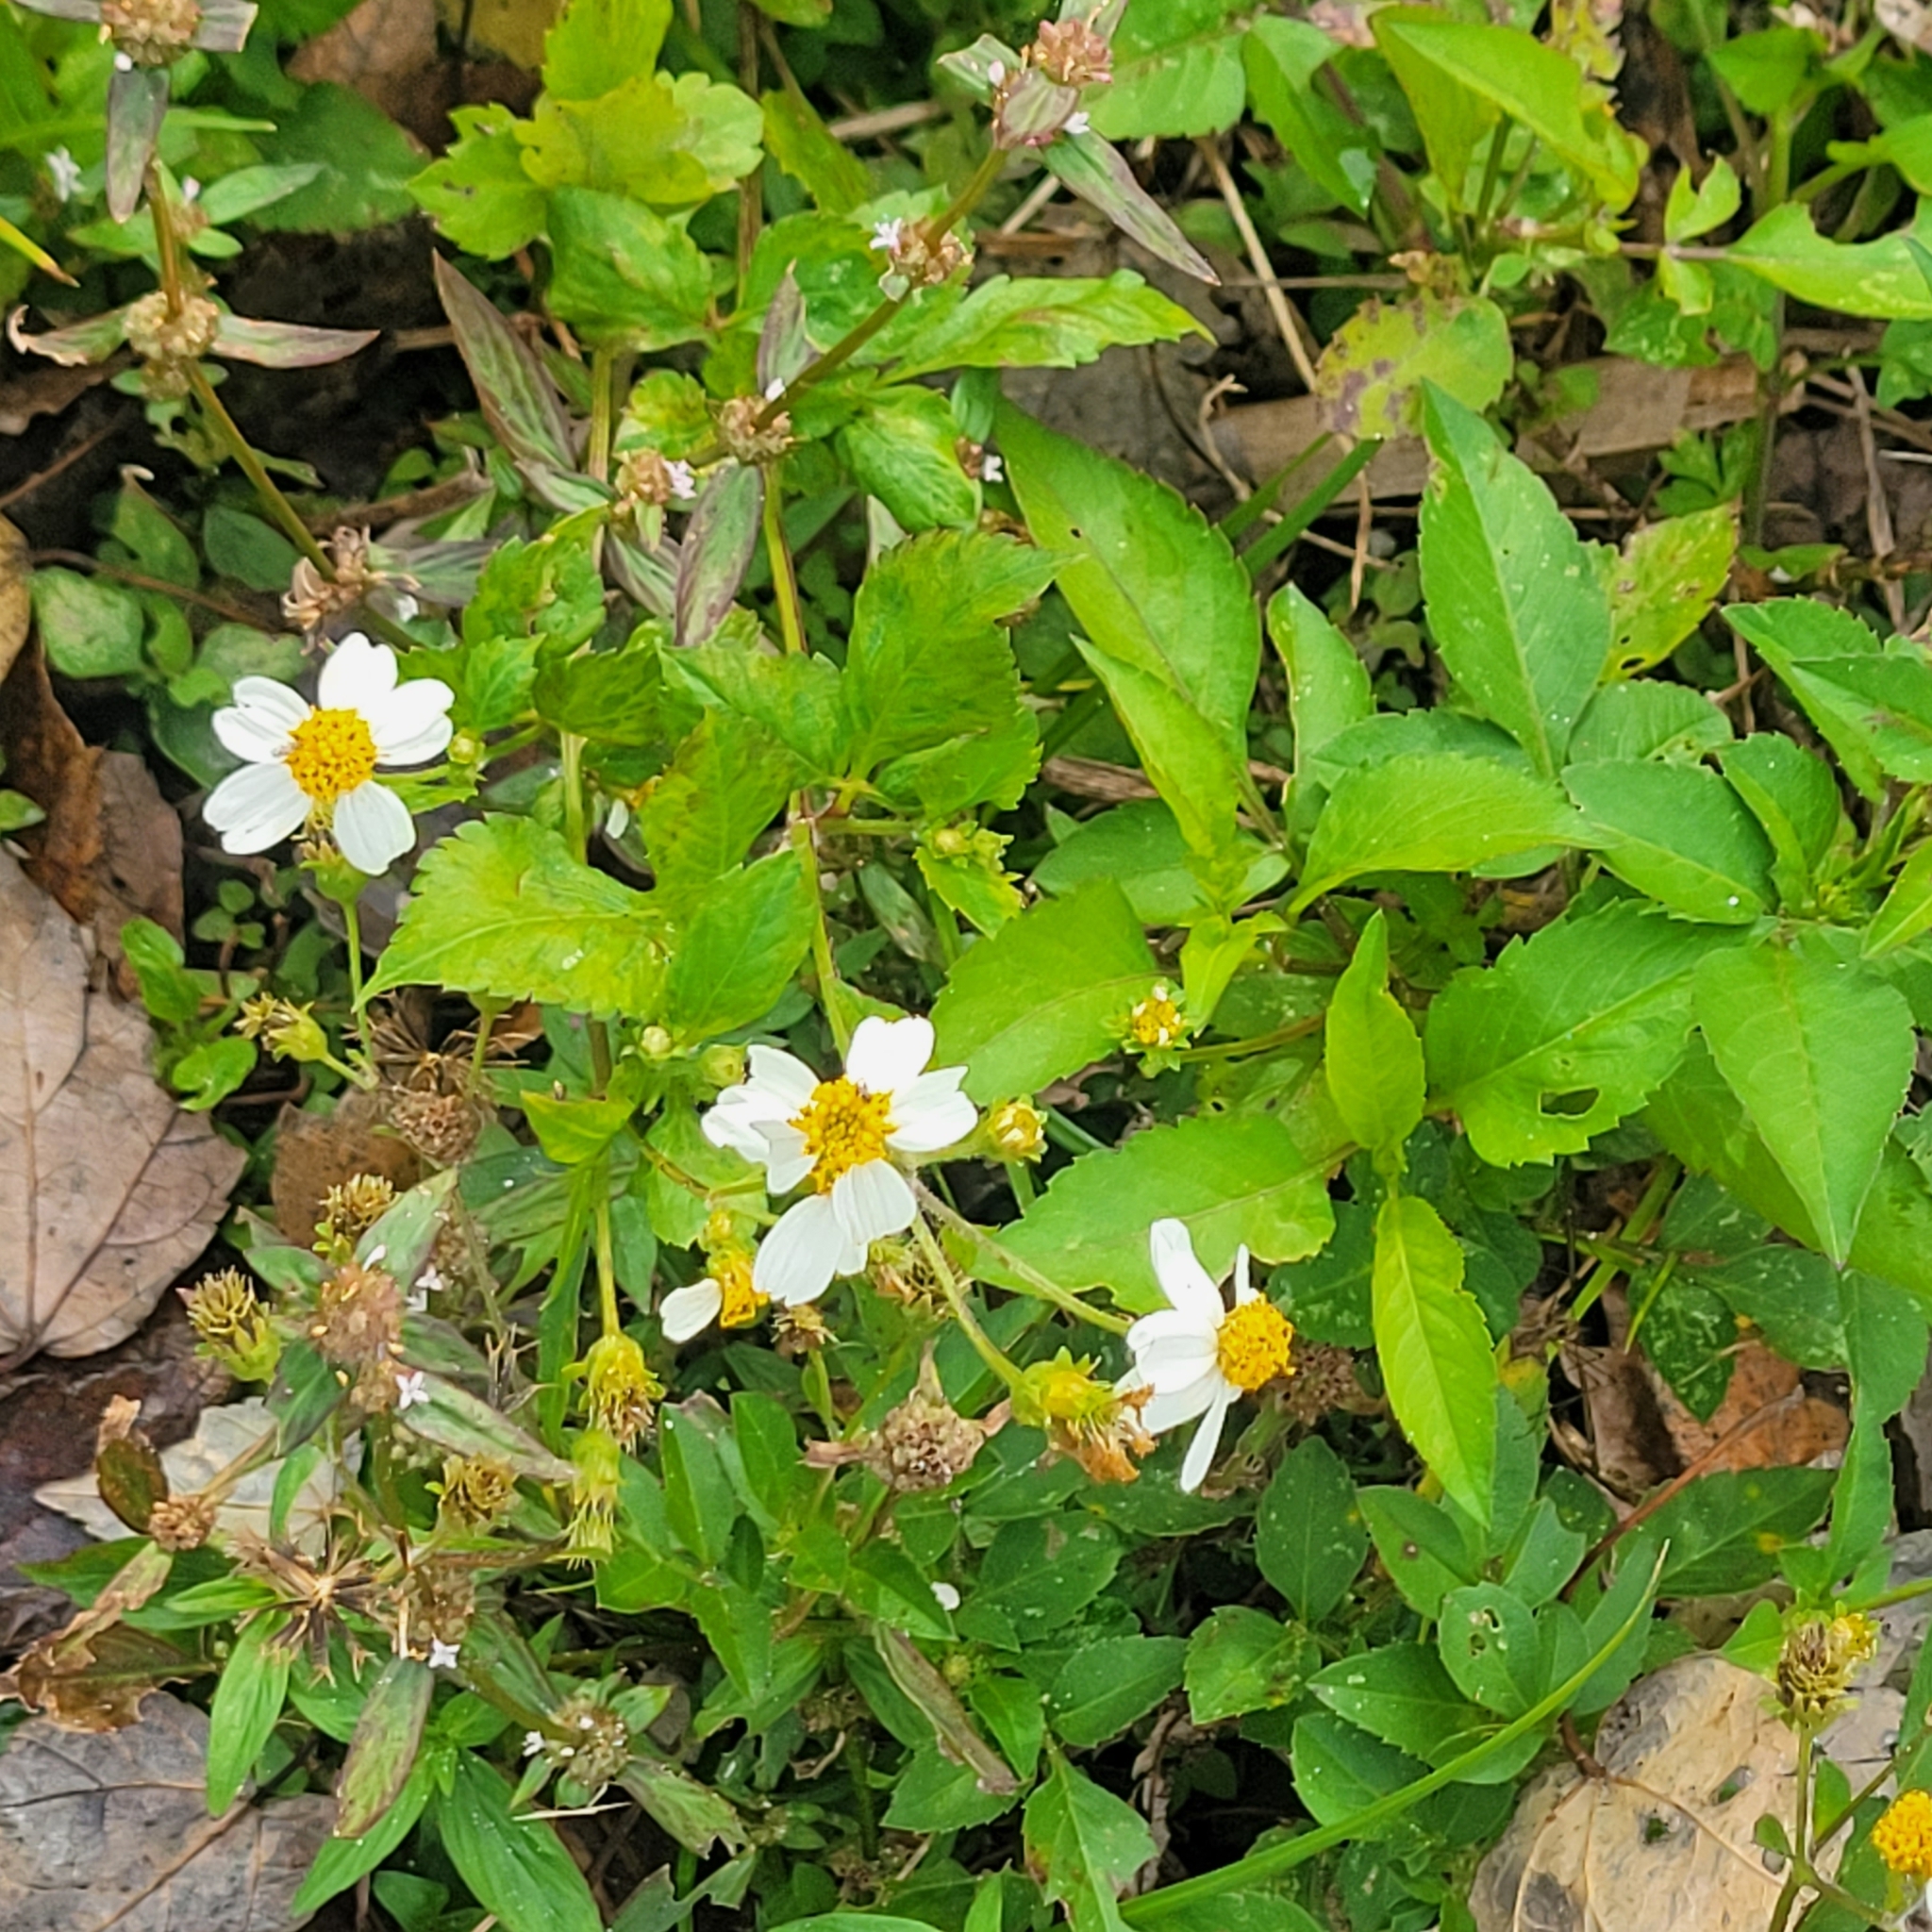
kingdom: Plantae
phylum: Tracheophyta
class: Magnoliopsida
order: Asterales
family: Asteraceae
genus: Bidens
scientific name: Bidens alba
